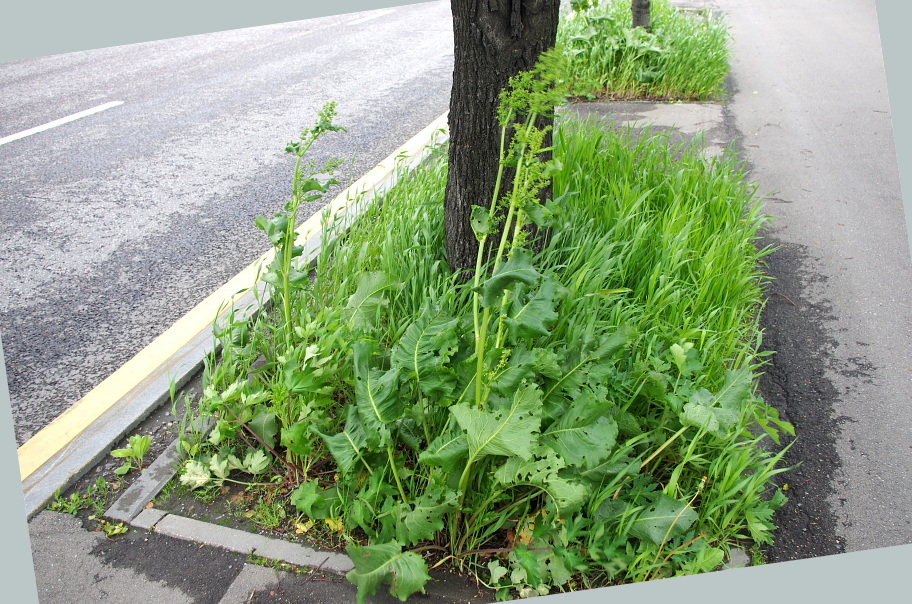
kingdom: Plantae
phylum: Tracheophyta
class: Magnoliopsida
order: Caryophyllales
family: Polygonaceae
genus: Rumex
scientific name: Rumex confertus
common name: Russian dock
